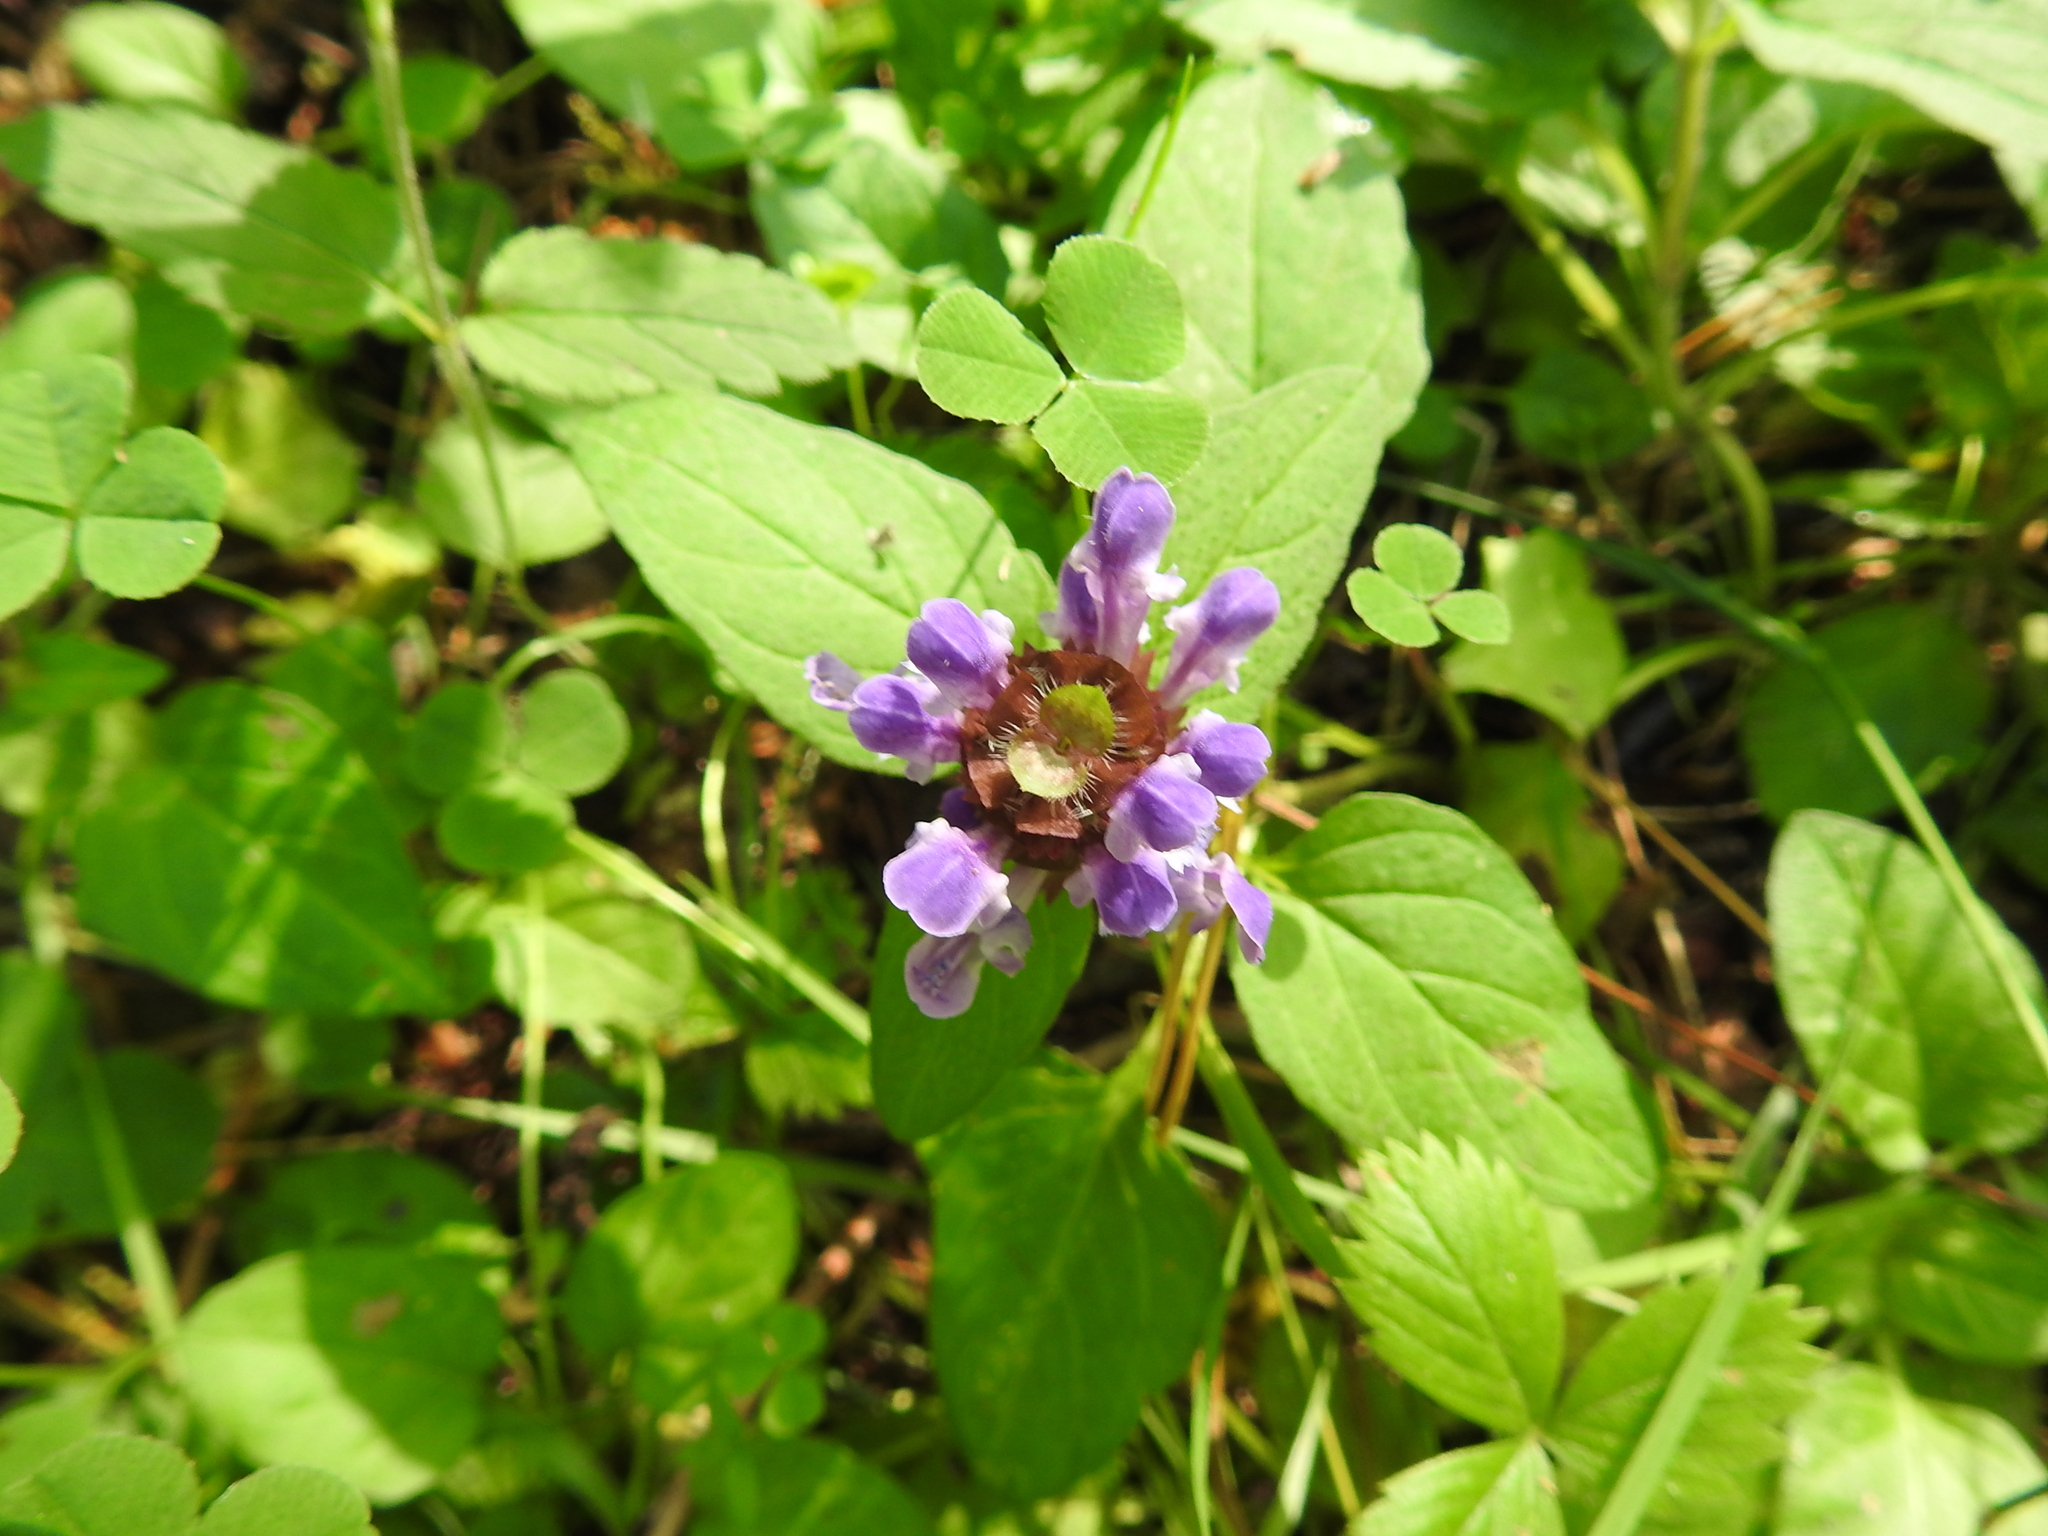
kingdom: Plantae
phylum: Tracheophyta
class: Magnoliopsida
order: Lamiales
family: Lamiaceae
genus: Prunella
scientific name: Prunella vulgaris
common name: Heal-all
